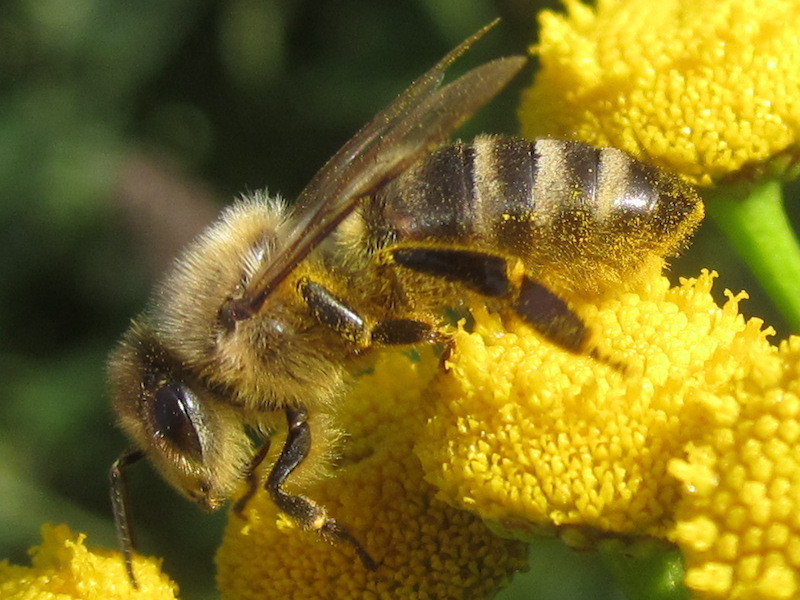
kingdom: Animalia
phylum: Arthropoda
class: Insecta
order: Hymenoptera
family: Apidae
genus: Apis
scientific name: Apis mellifera
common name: Honey bee
